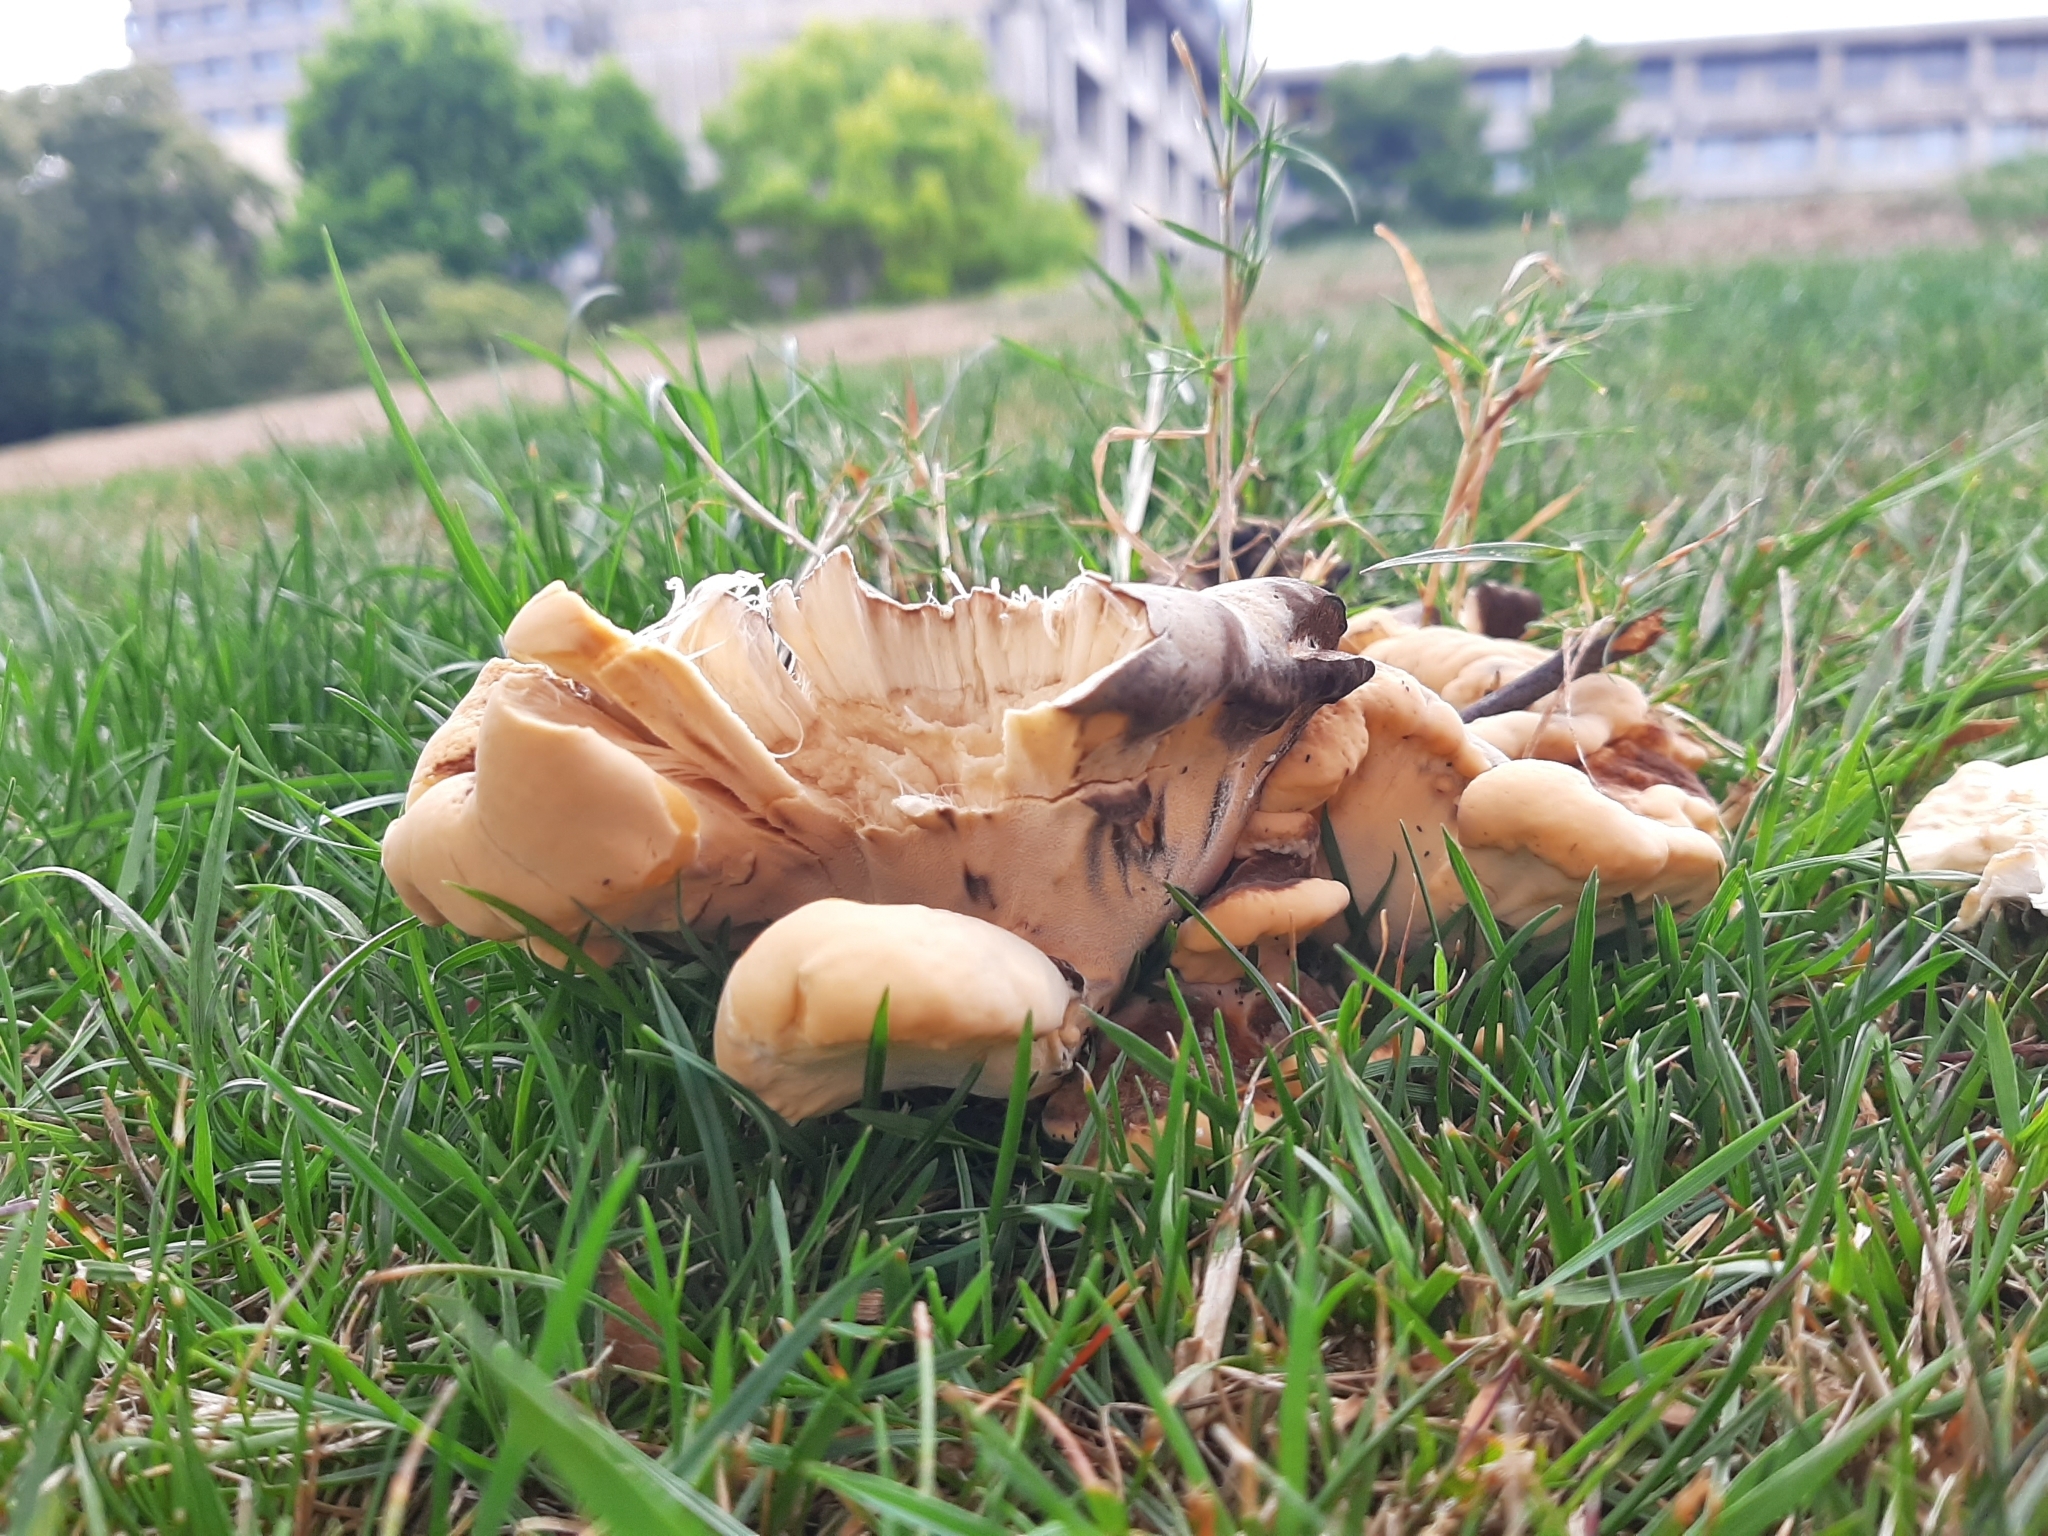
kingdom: Fungi
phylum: Basidiomycota
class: Agaricomycetes
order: Polyporales
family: Meripilaceae
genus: Meripilus
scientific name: Meripilus giganteus
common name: Giant polypore
